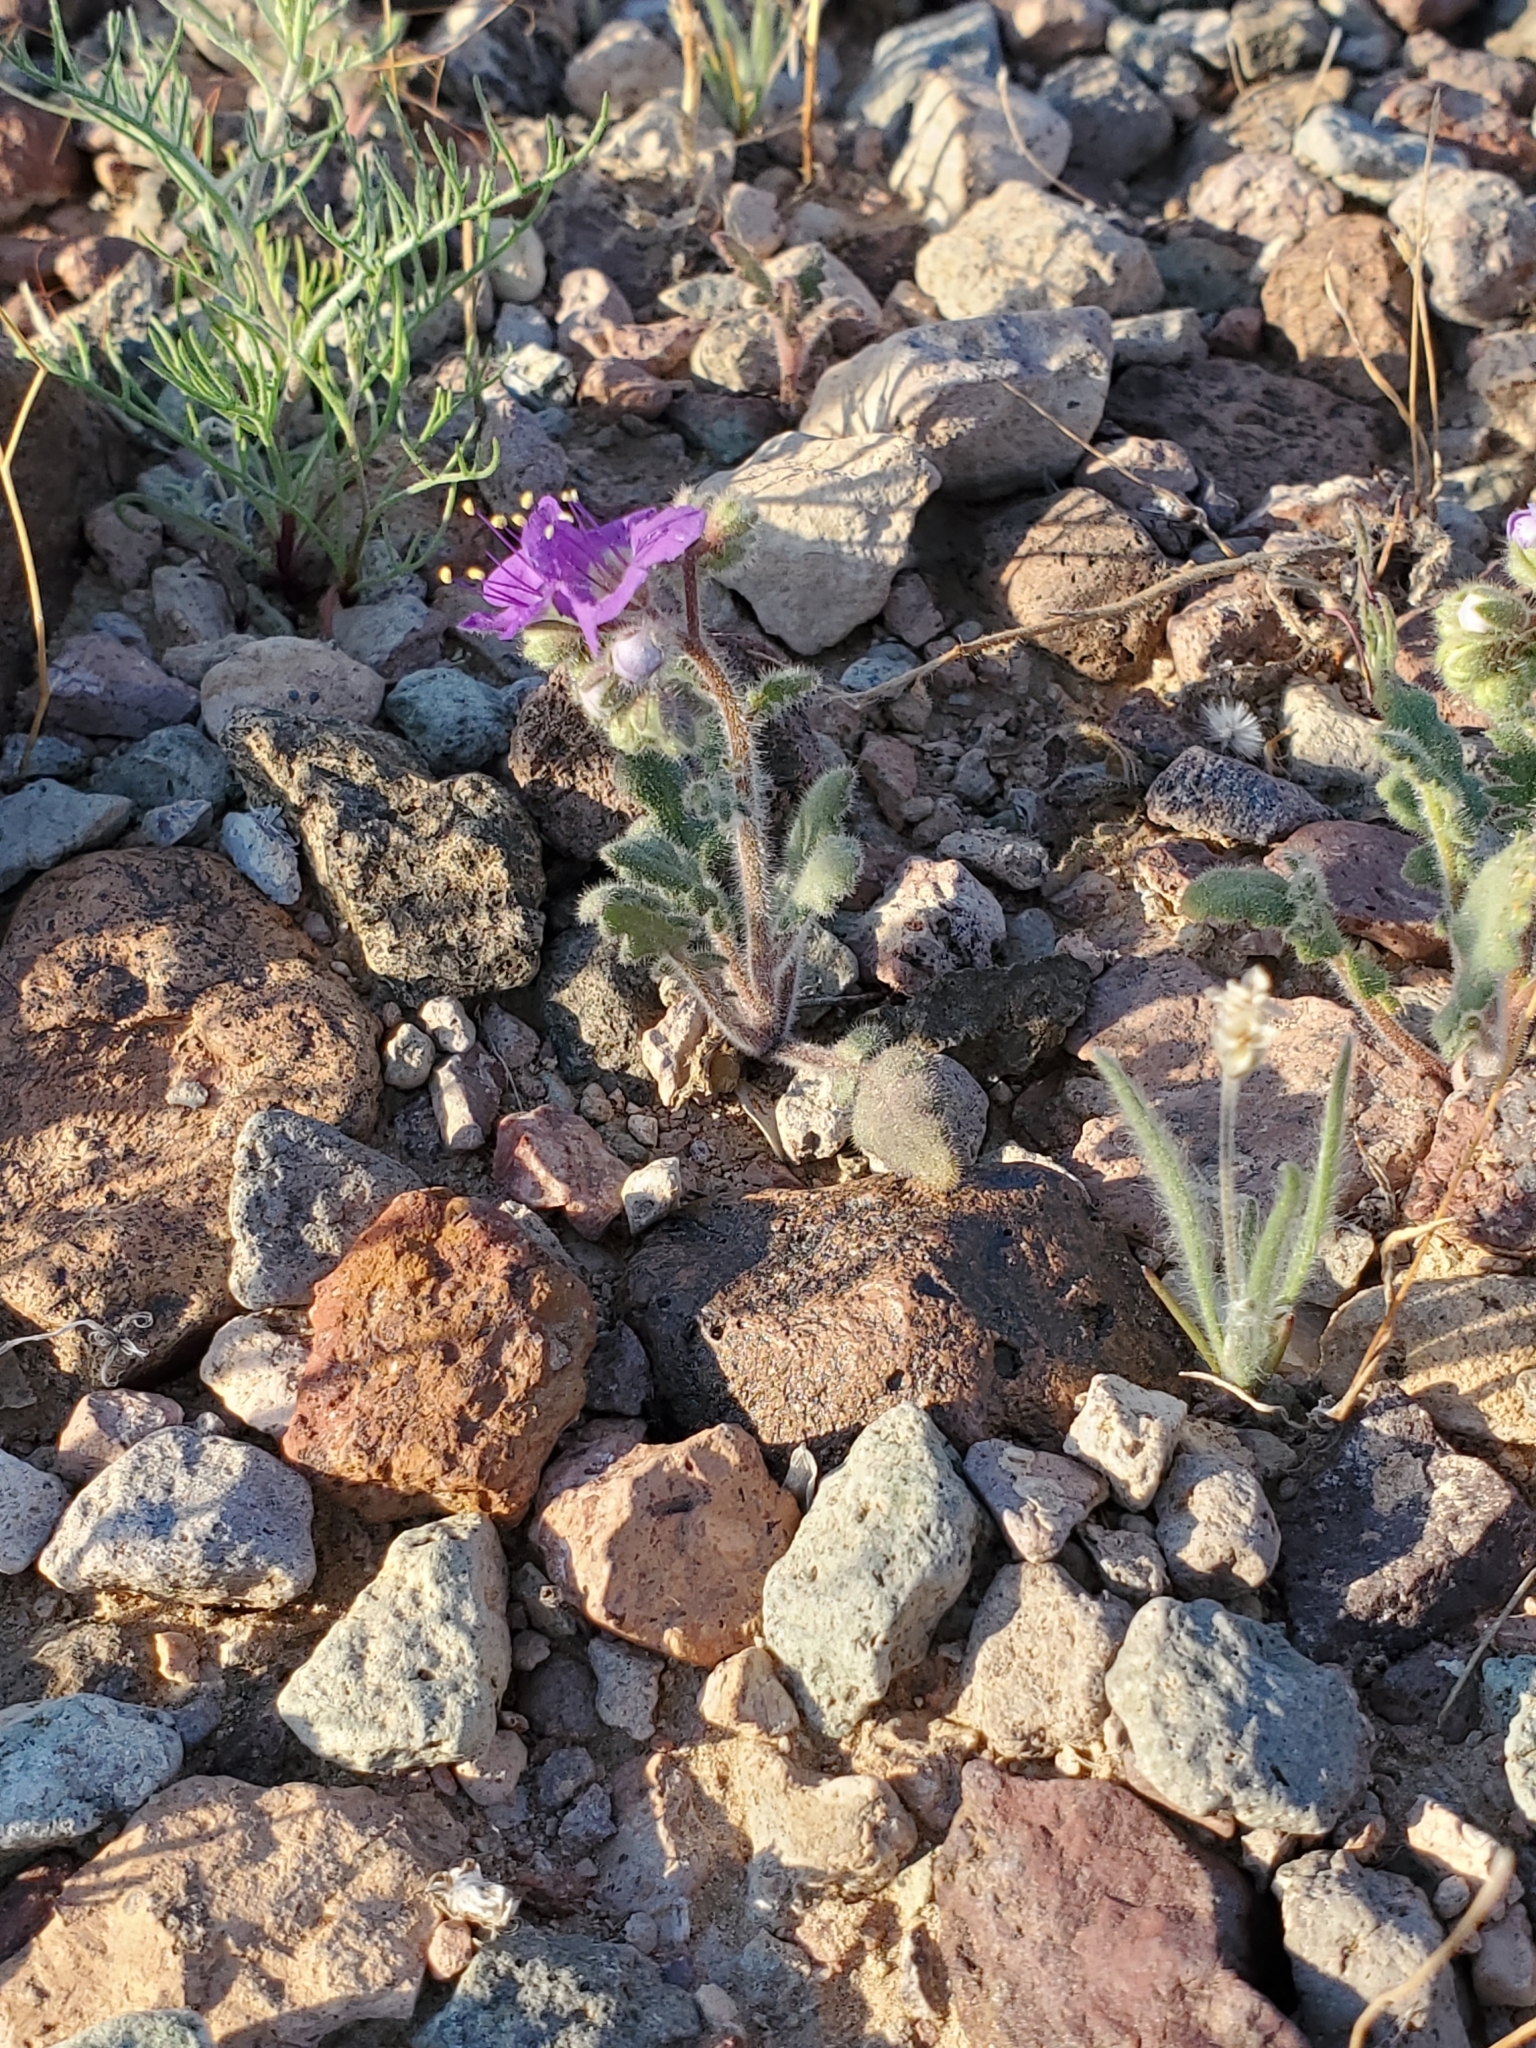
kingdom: Plantae
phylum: Tracheophyta
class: Magnoliopsida
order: Boraginales
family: Hydrophyllaceae
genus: Phacelia
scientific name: Phacelia crenulata
